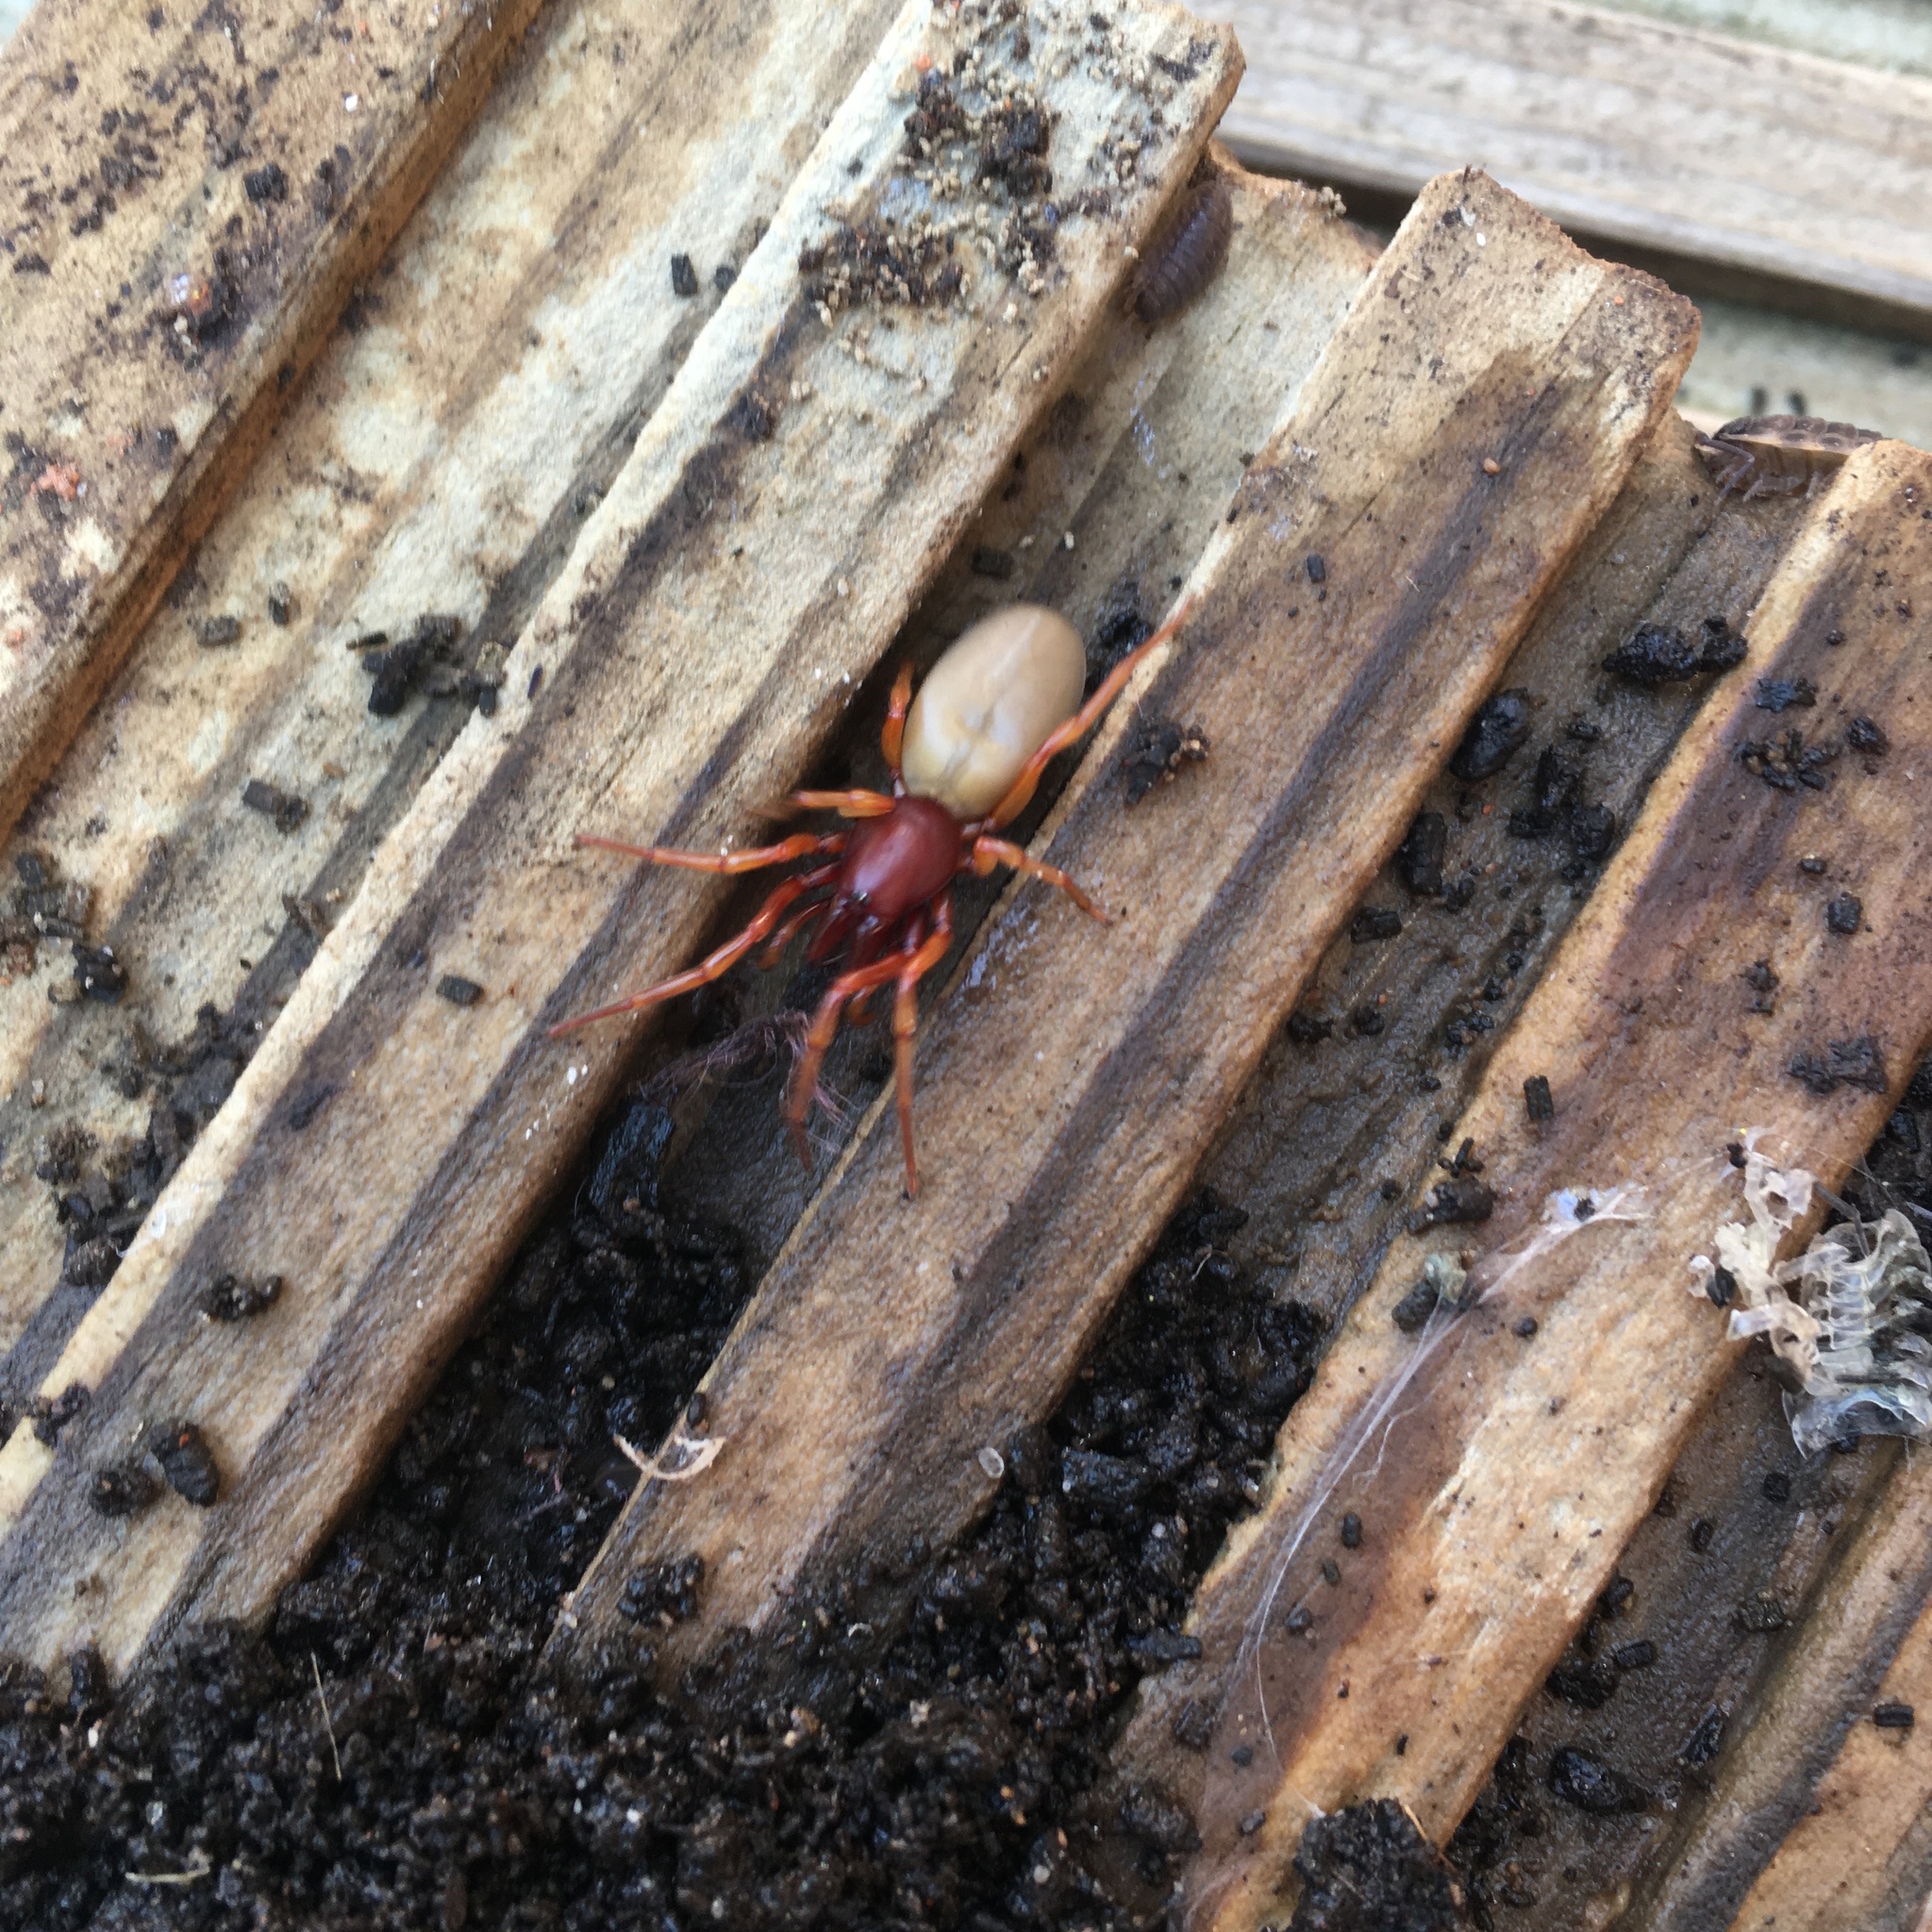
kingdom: Animalia
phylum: Arthropoda
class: Arachnida
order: Araneae
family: Dysderidae
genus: Dysdera
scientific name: Dysdera crocata
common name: Woodlouse spider
